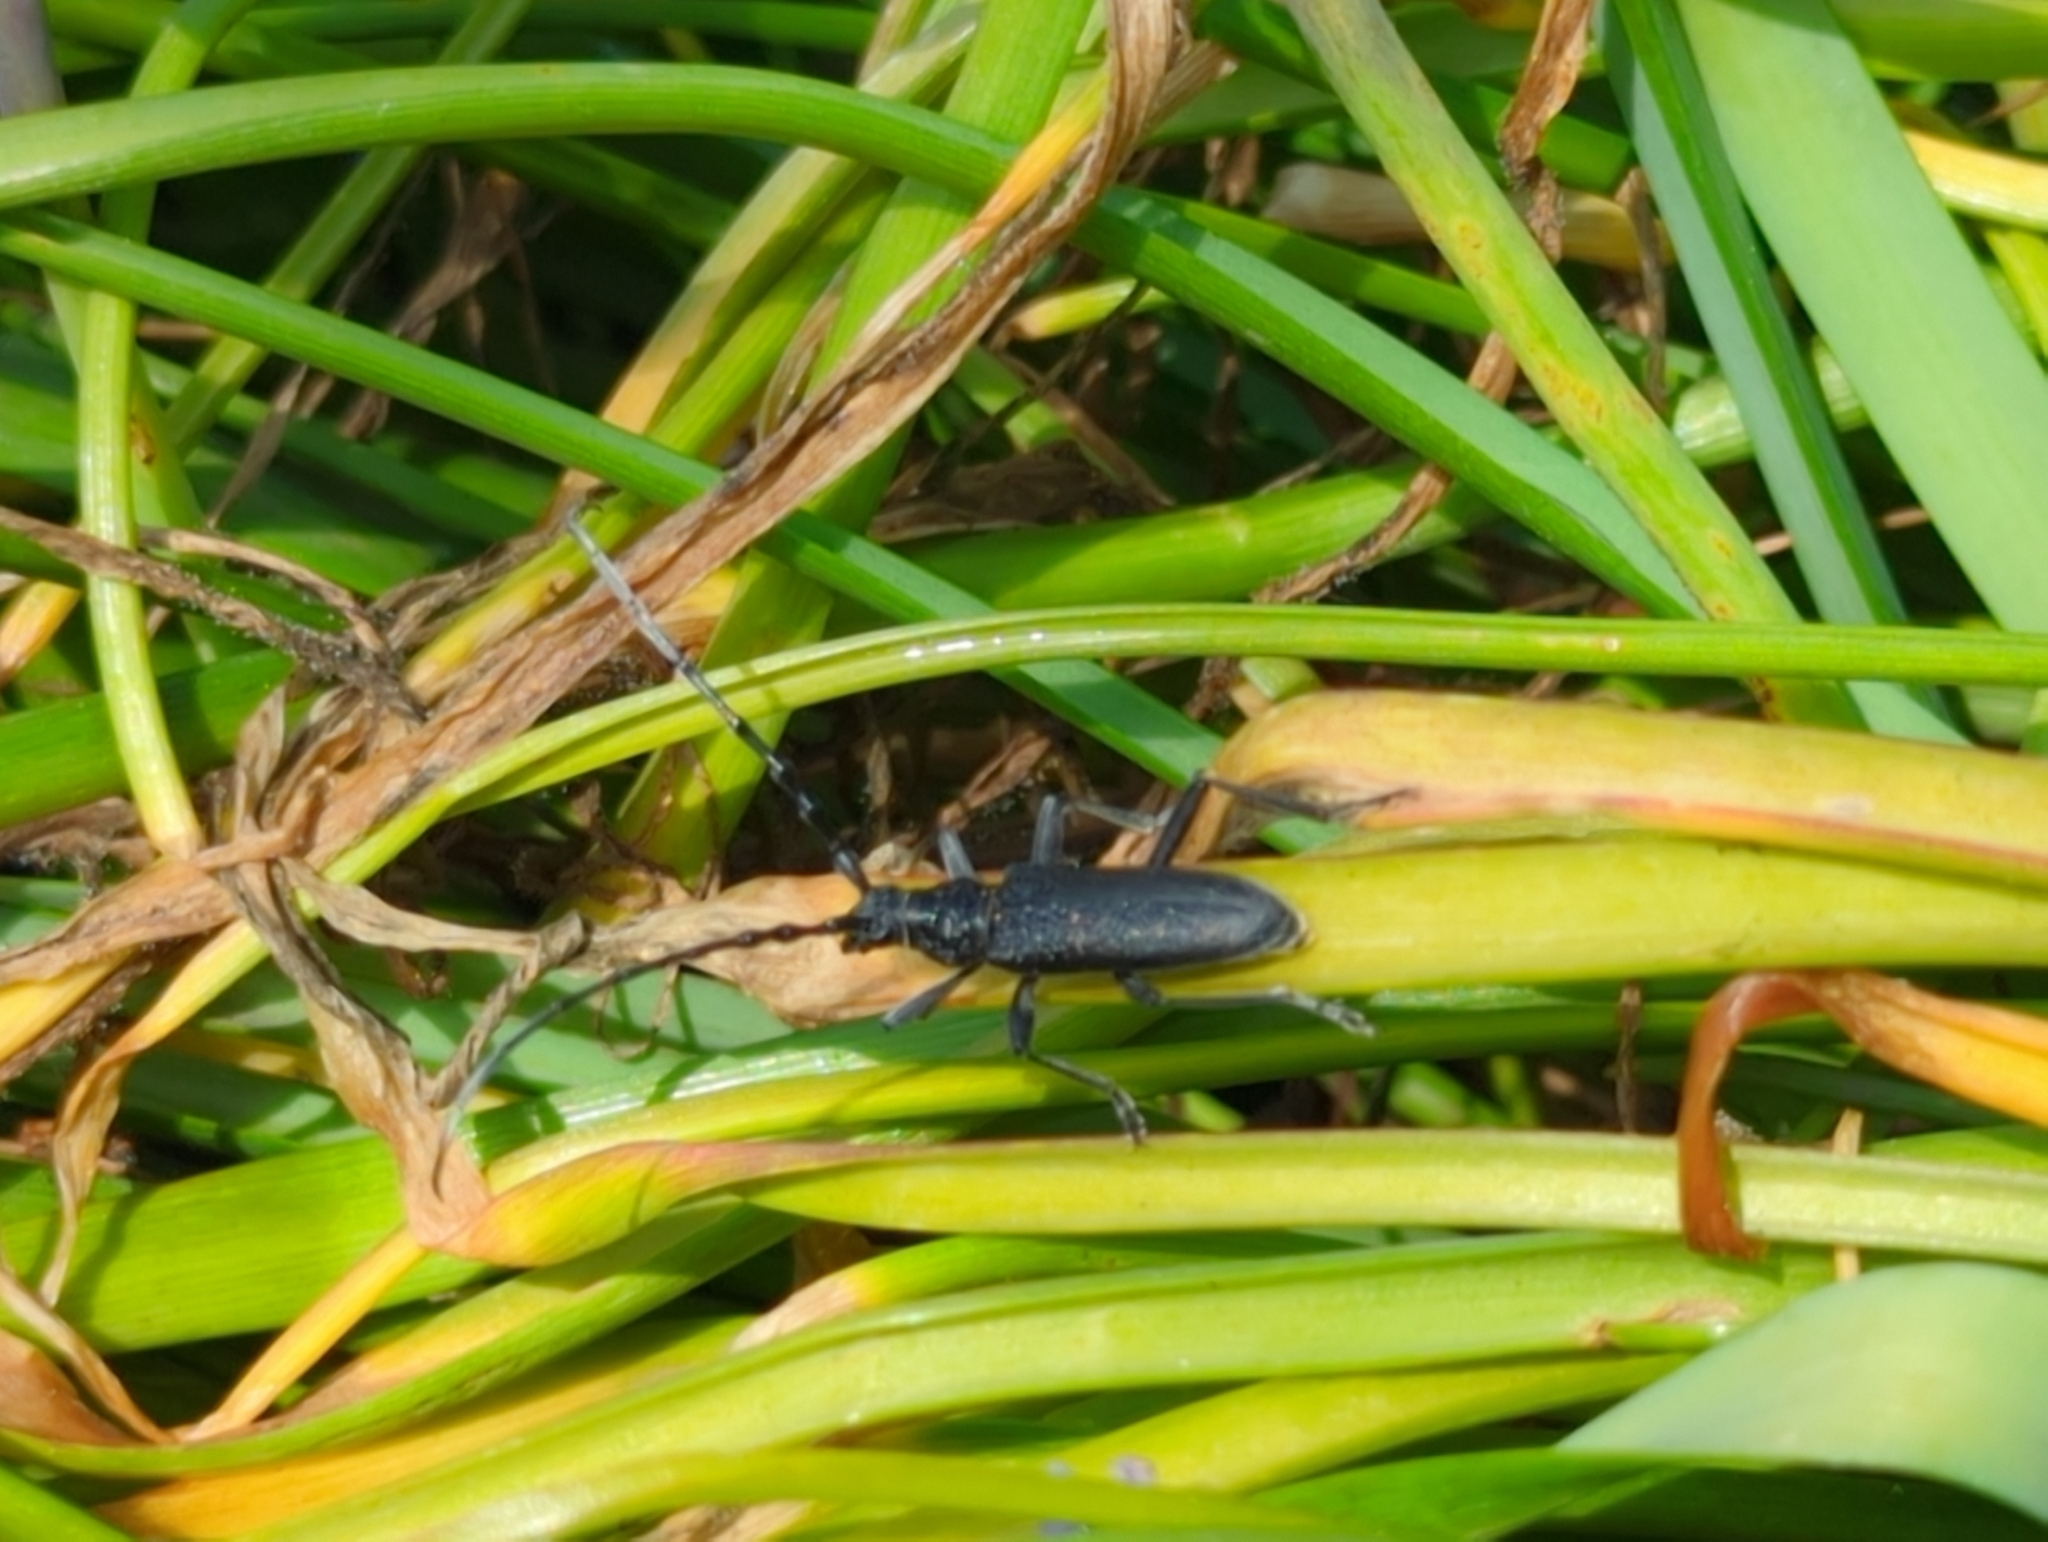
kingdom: Animalia
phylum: Arthropoda
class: Insecta
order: Coleoptera
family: Cerambycidae
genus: Cerambyx
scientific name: Cerambyx scopolii
